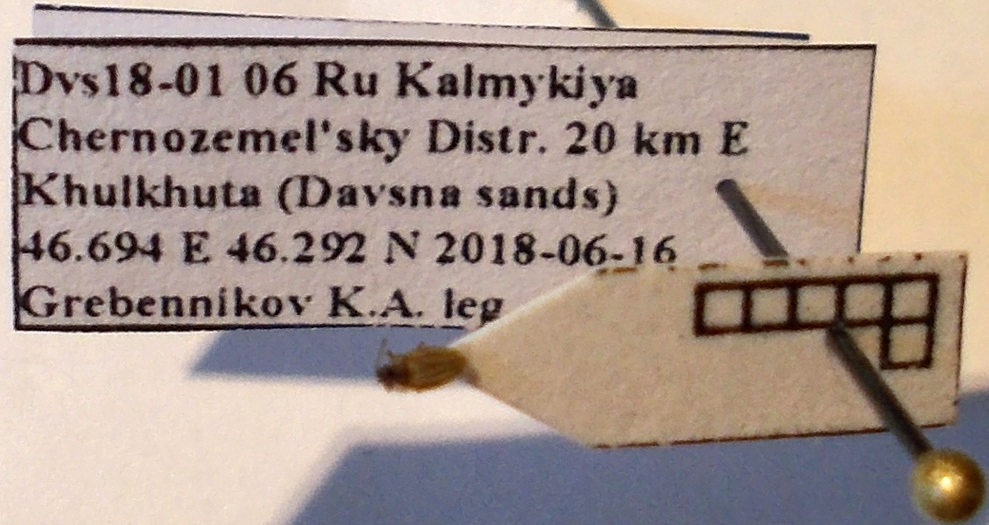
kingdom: Animalia
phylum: Arthropoda
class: Insecta
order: Hemiptera
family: Tingidae
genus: Sphaerista
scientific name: Sphaerista emeljanovi
